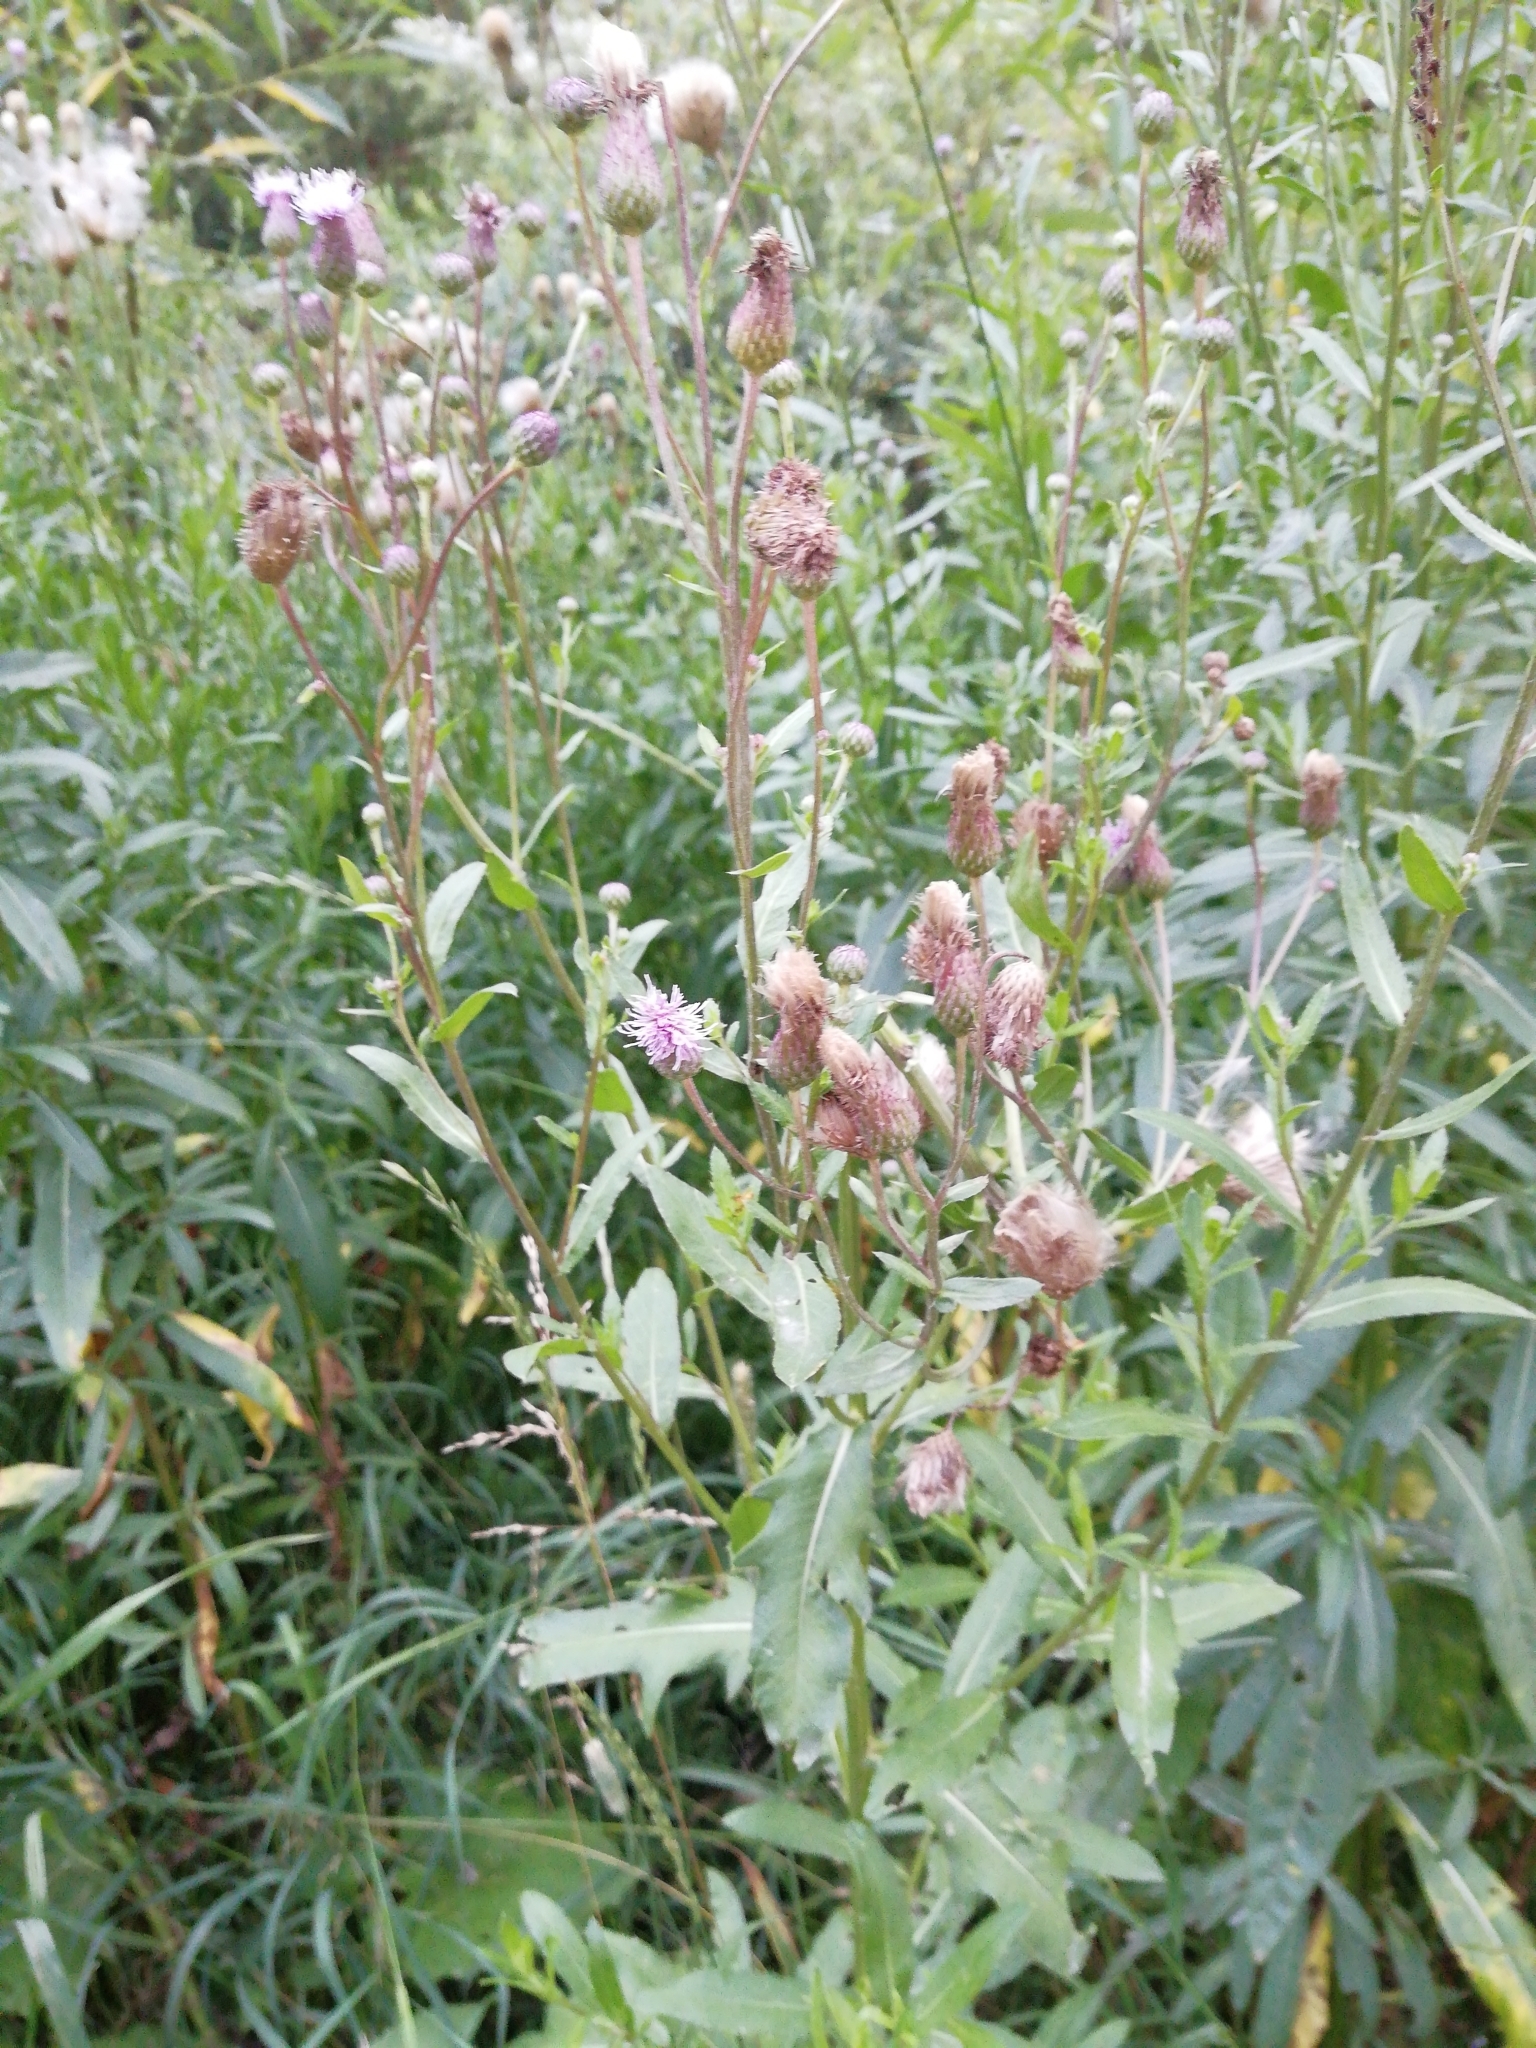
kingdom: Plantae
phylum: Tracheophyta
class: Magnoliopsida
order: Asterales
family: Asteraceae
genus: Cirsium
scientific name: Cirsium arvense
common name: Creeping thistle
